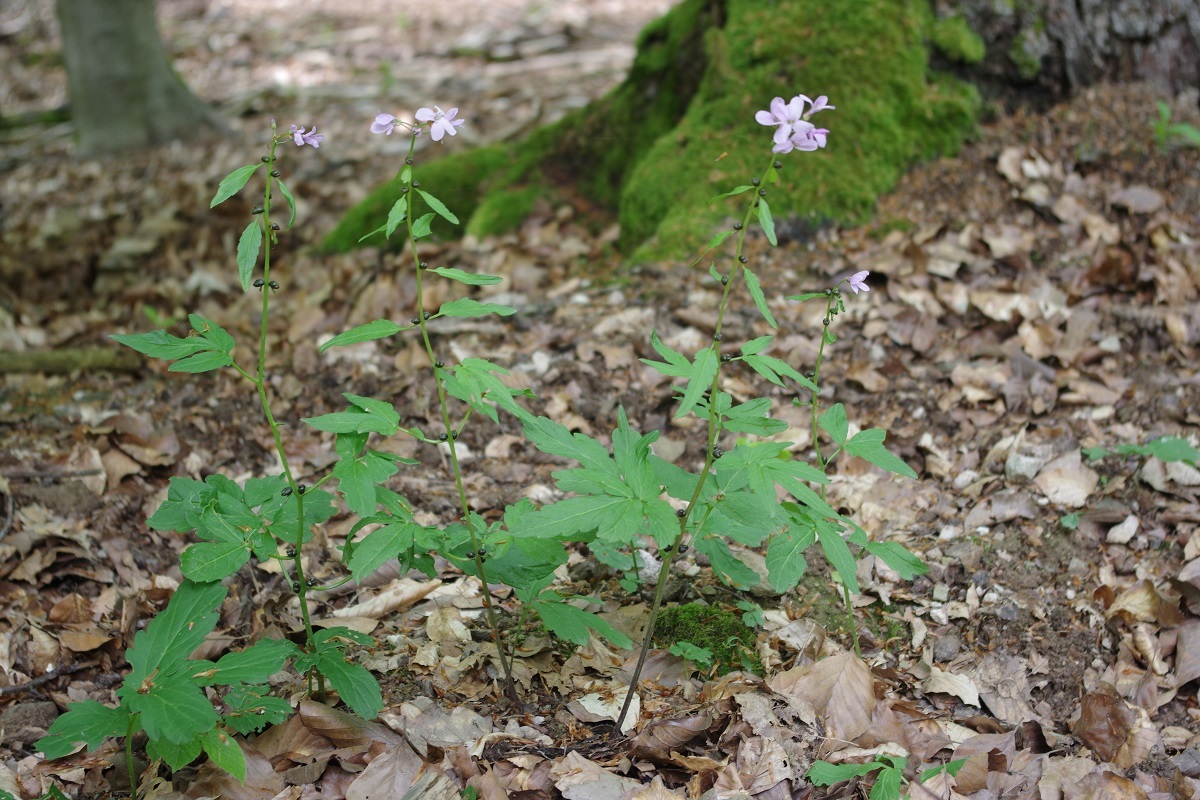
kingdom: Plantae
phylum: Tracheophyta
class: Magnoliopsida
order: Brassicales
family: Brassicaceae
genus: Cardamine
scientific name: Cardamine bulbifera
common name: Coralroot bittercress
